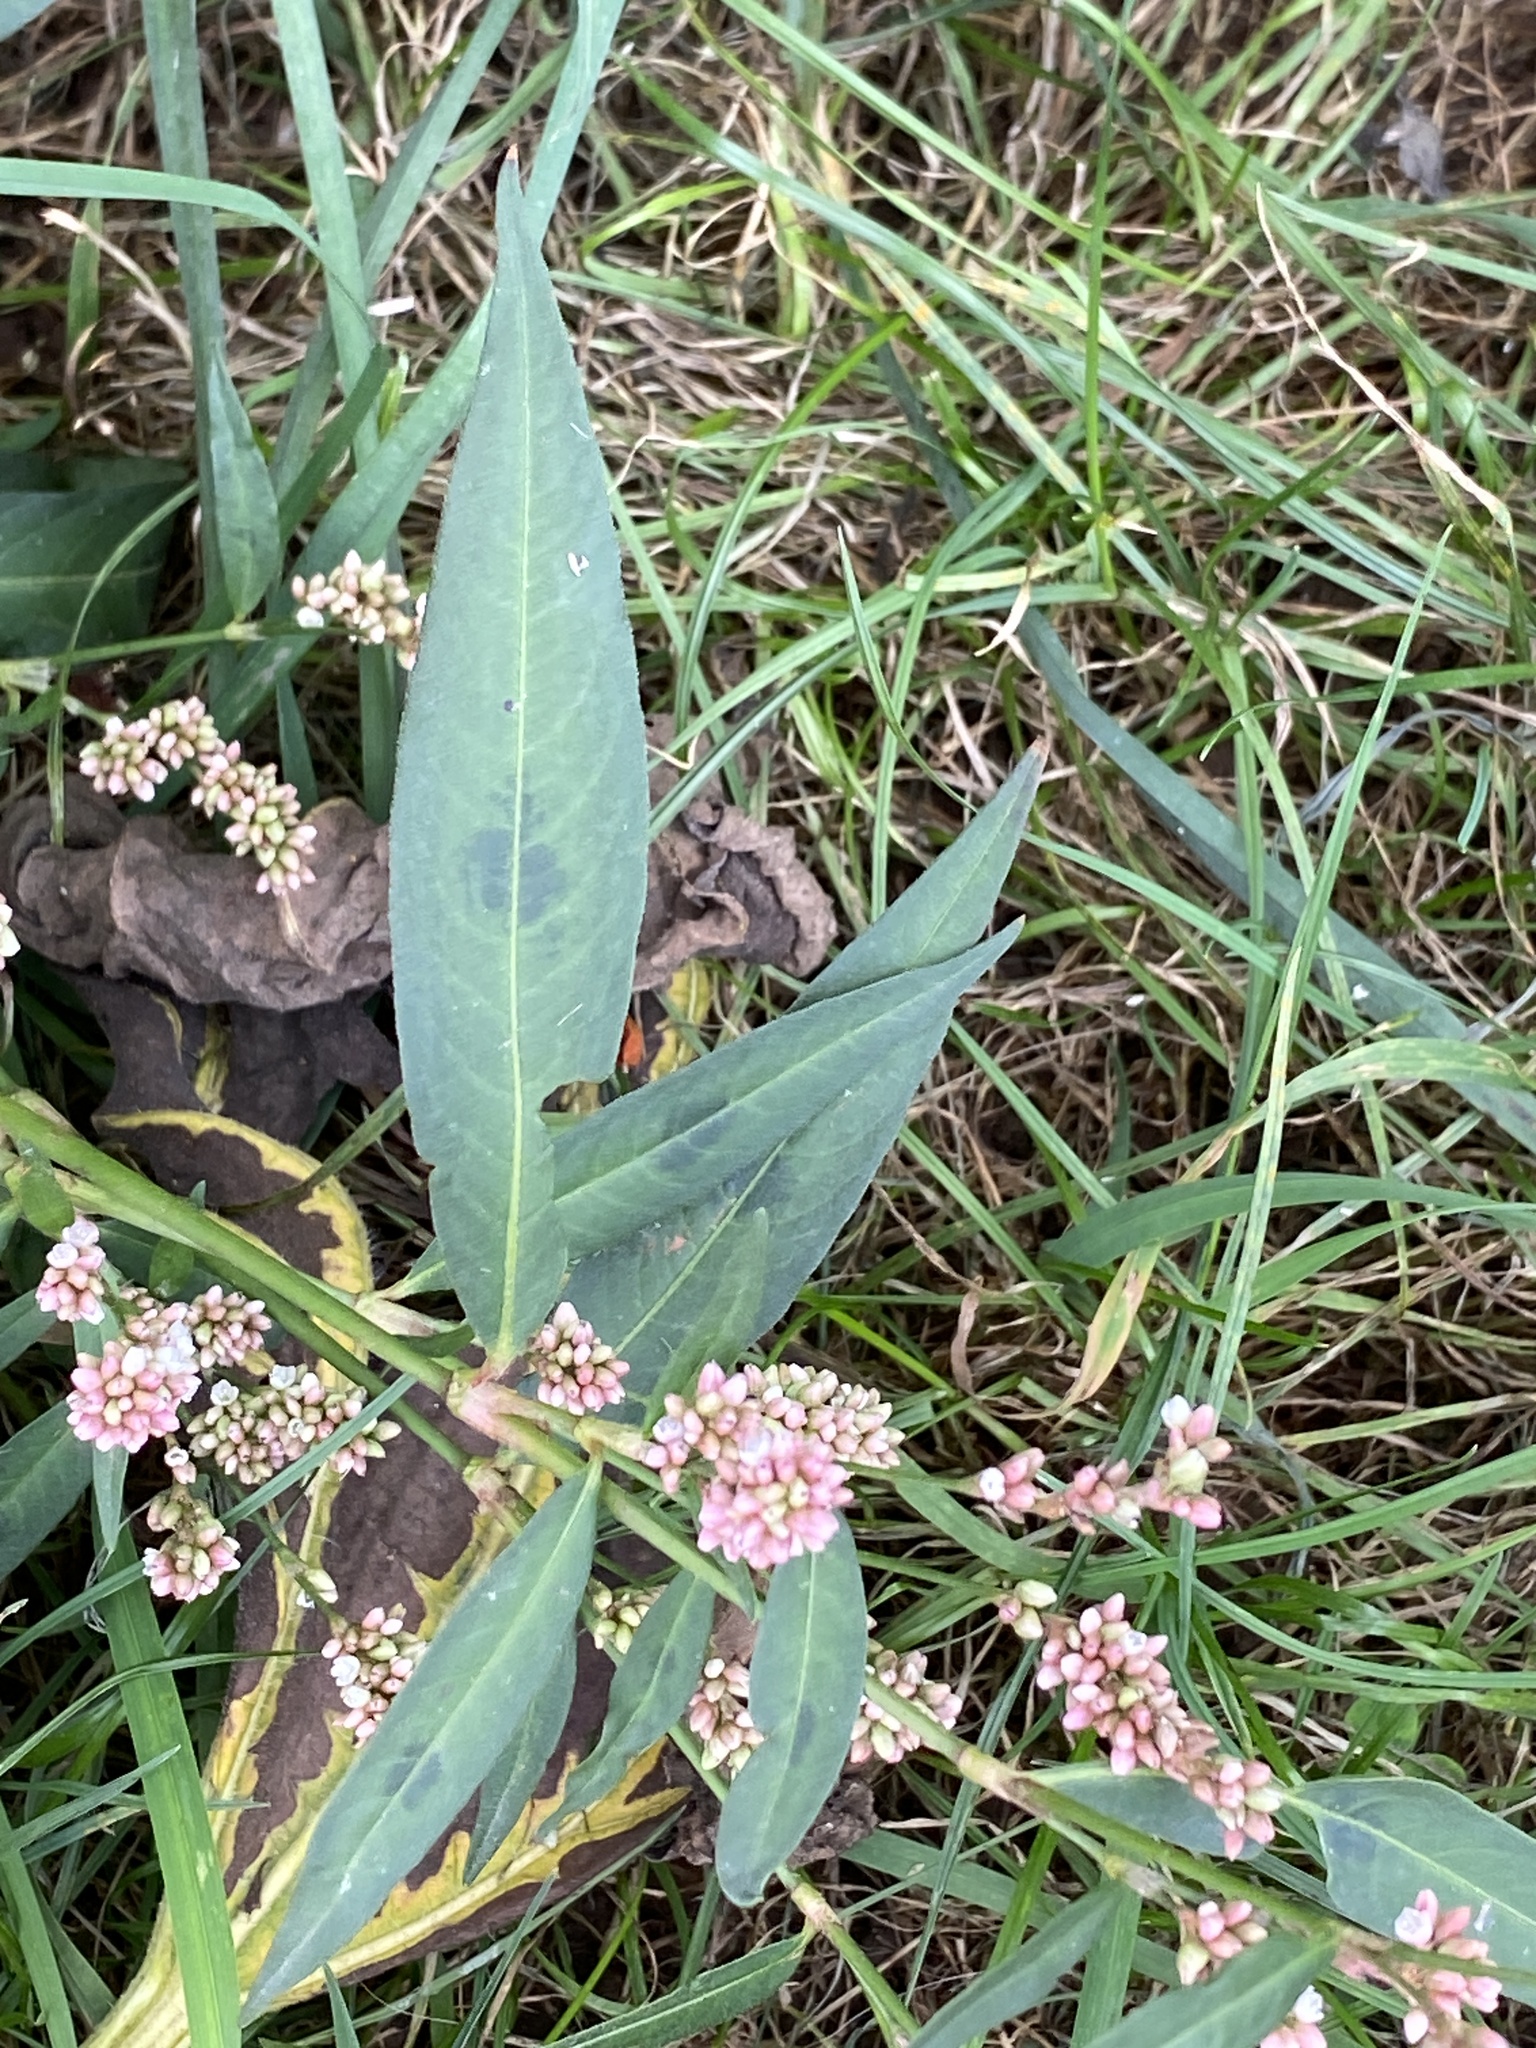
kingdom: Plantae
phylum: Tracheophyta
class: Magnoliopsida
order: Caryophyllales
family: Polygonaceae
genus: Persicaria
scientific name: Persicaria maculosa
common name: Redshank
